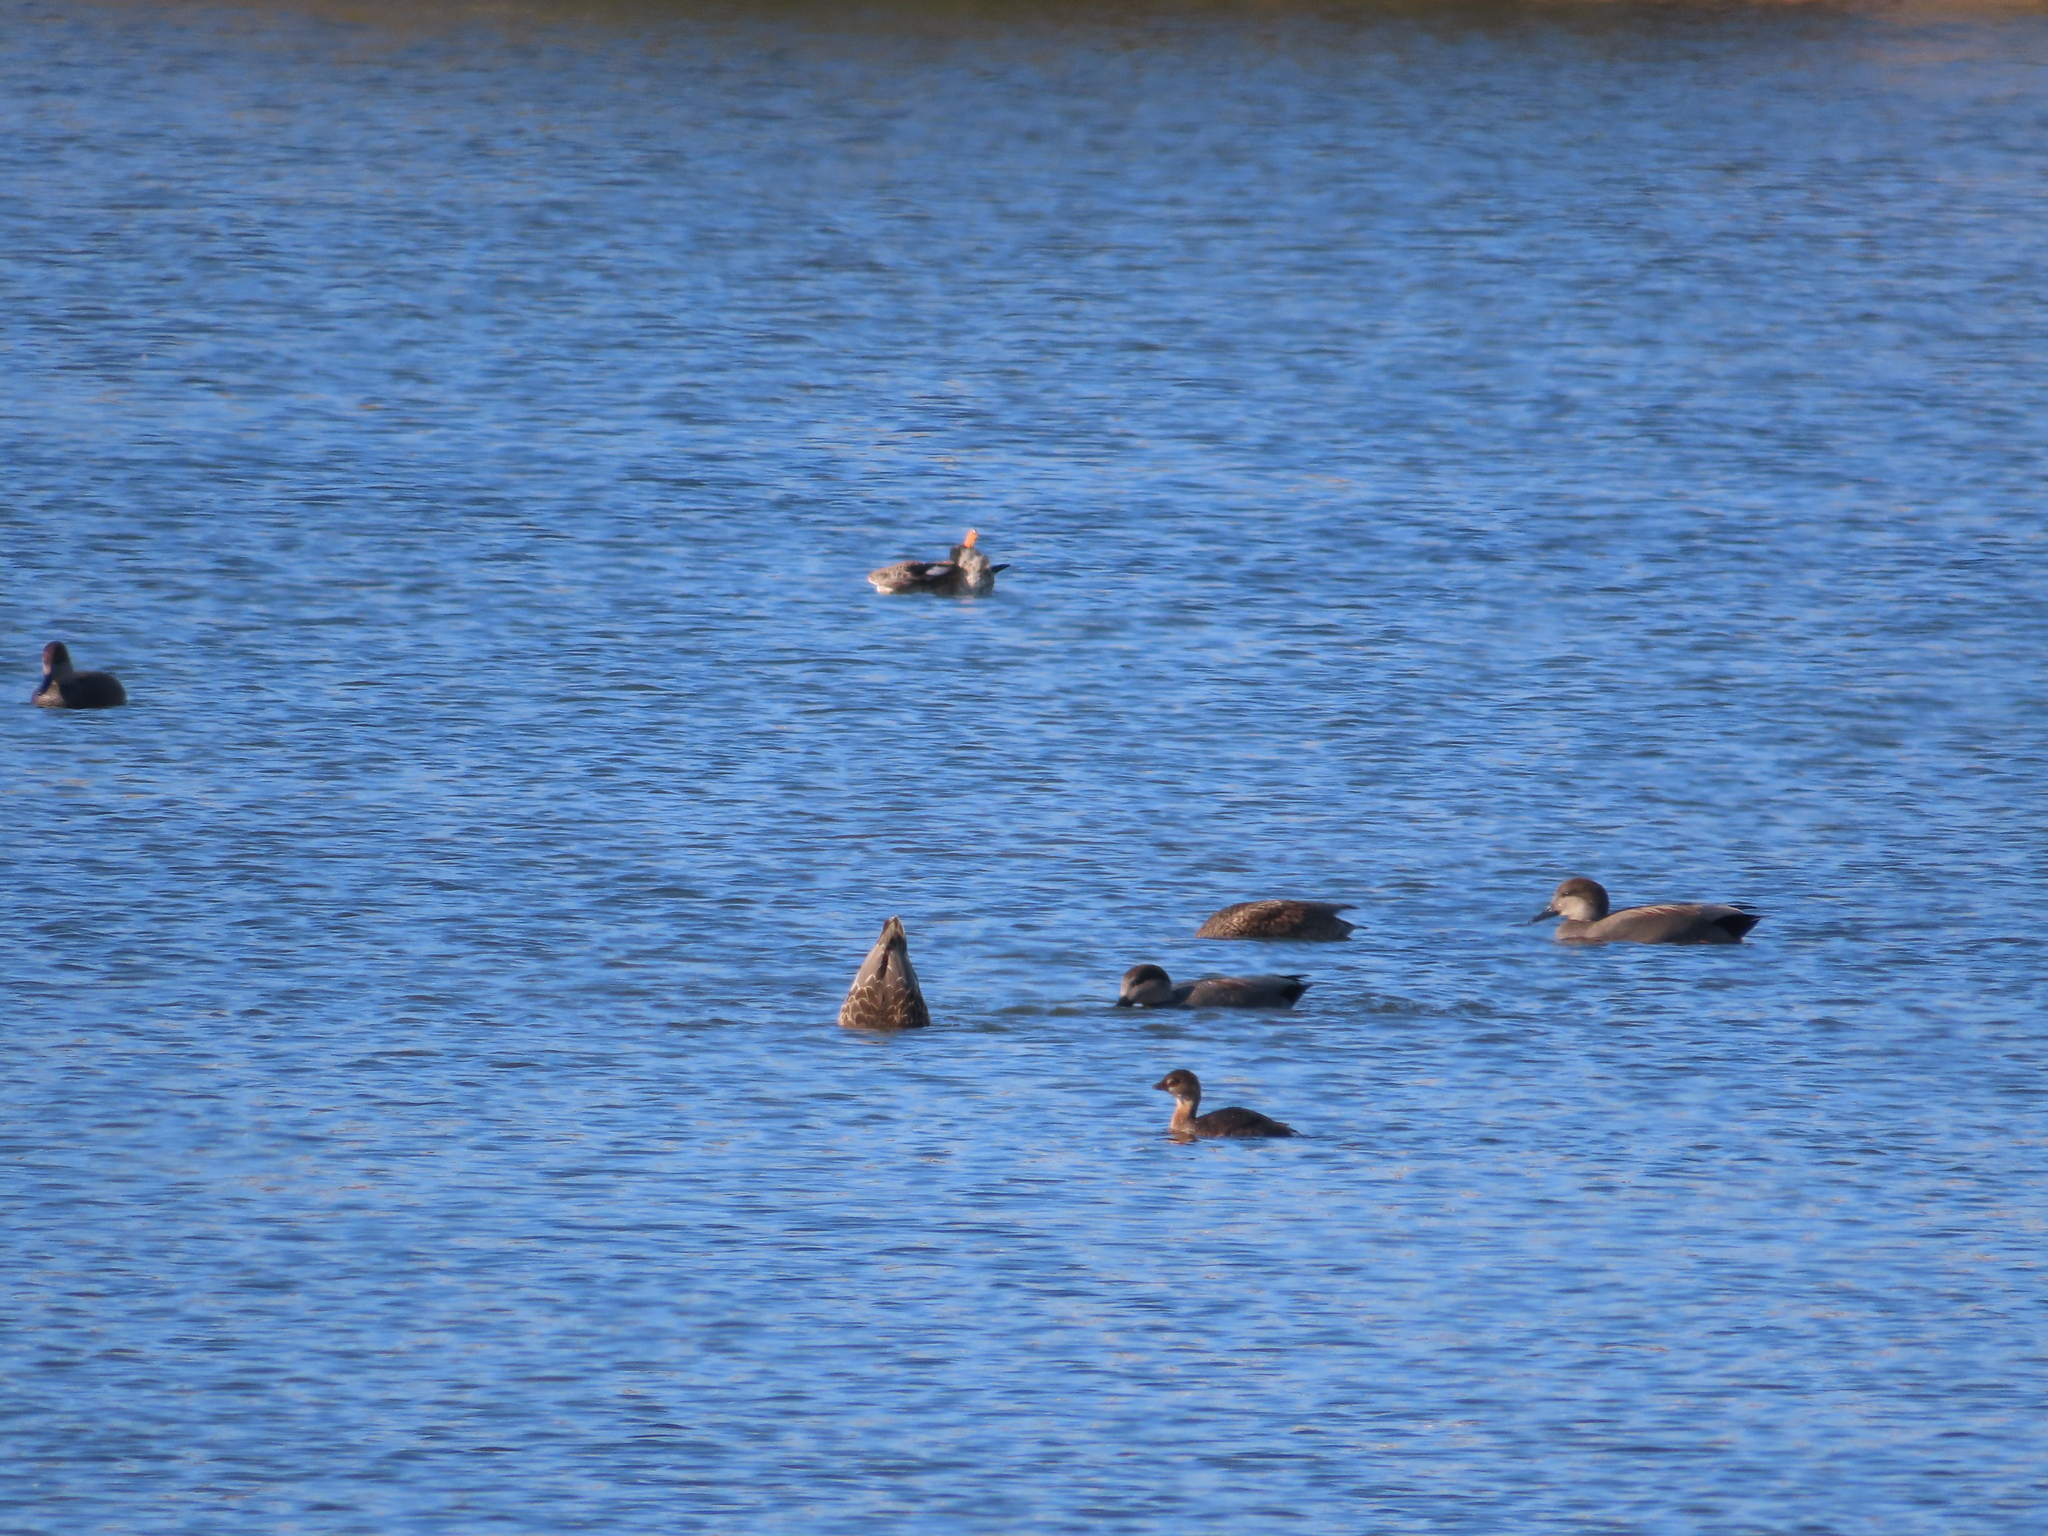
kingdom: Animalia
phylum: Chordata
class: Aves
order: Podicipediformes
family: Podicipedidae
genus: Podilymbus
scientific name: Podilymbus podiceps
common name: Pied-billed grebe
